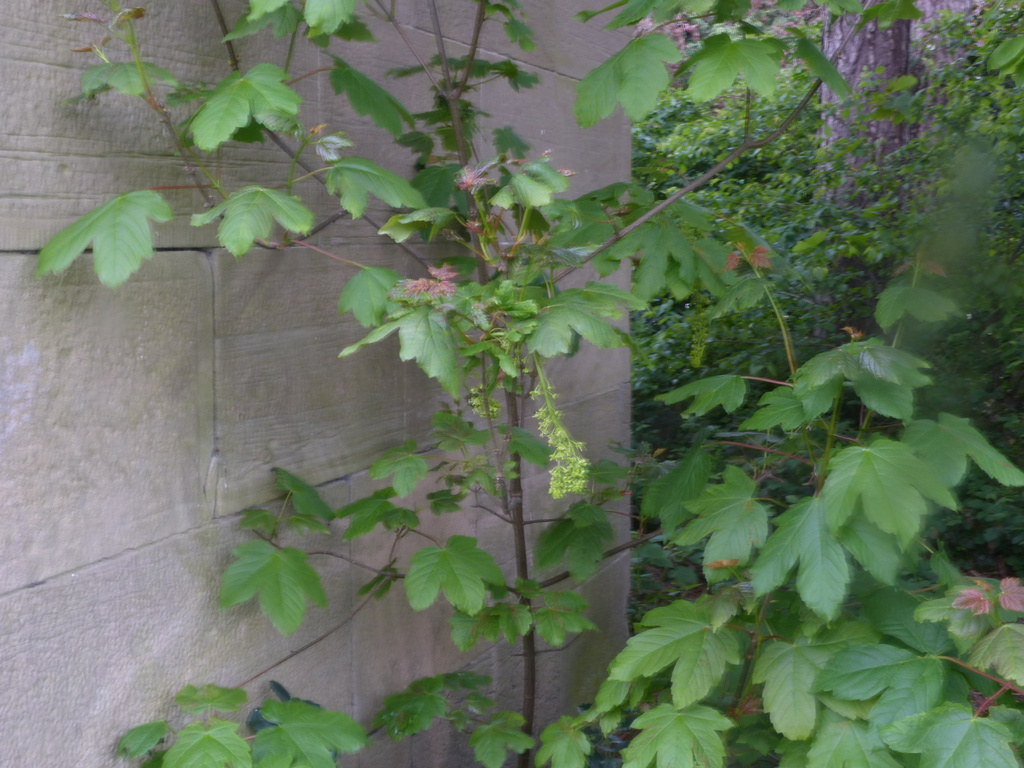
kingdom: Plantae
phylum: Tracheophyta
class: Magnoliopsida
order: Sapindales
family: Sapindaceae
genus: Acer
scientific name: Acer pseudoplatanus
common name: Sycamore
